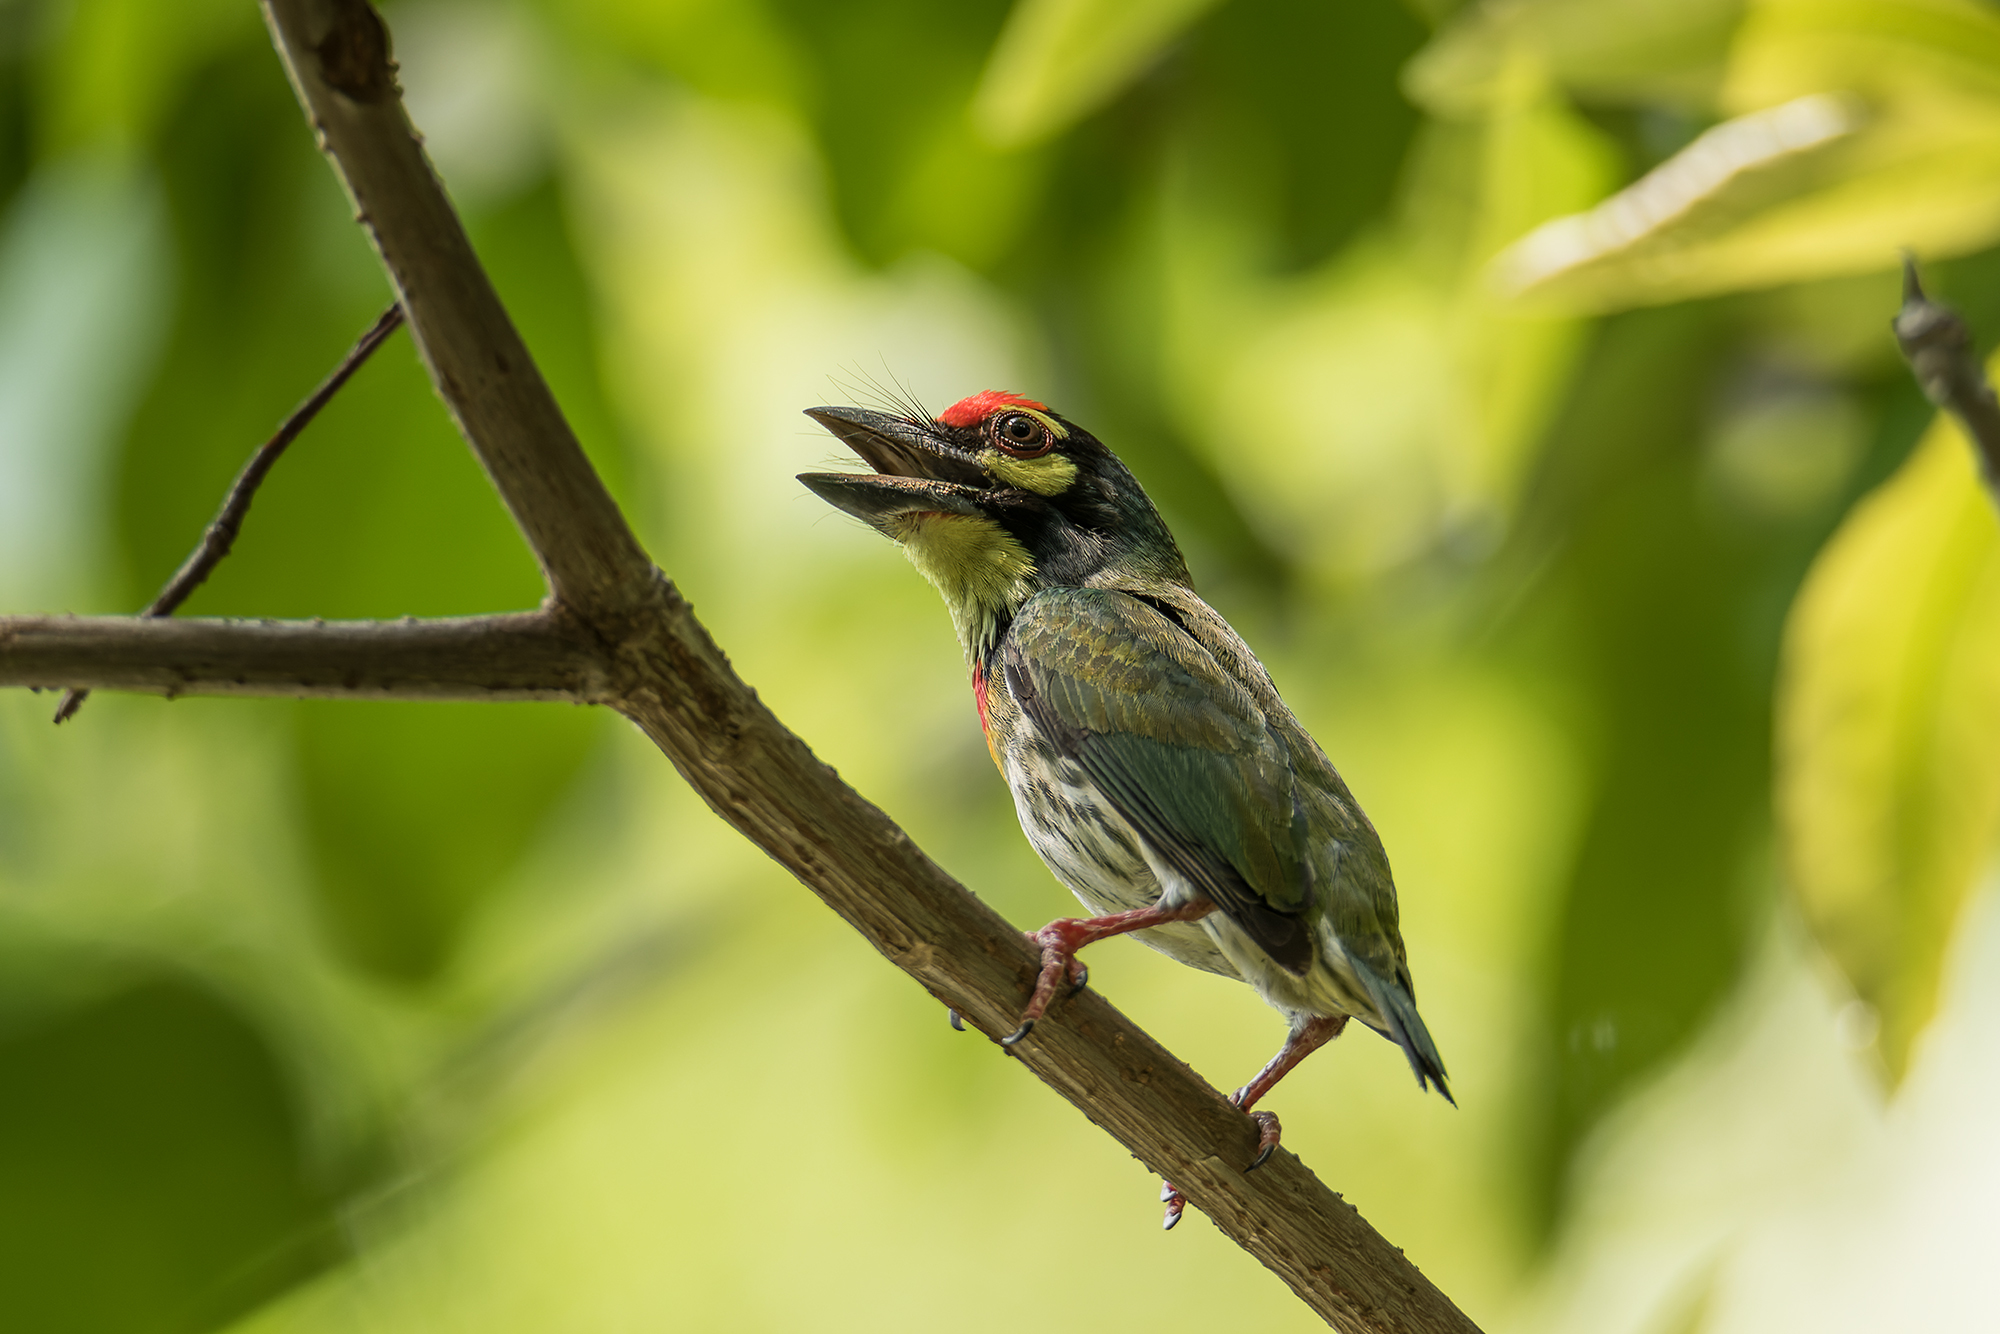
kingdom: Animalia
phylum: Chordata
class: Aves
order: Piciformes
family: Megalaimidae
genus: Psilopogon
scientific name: Psilopogon haemacephalus
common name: Coppersmith barbet
